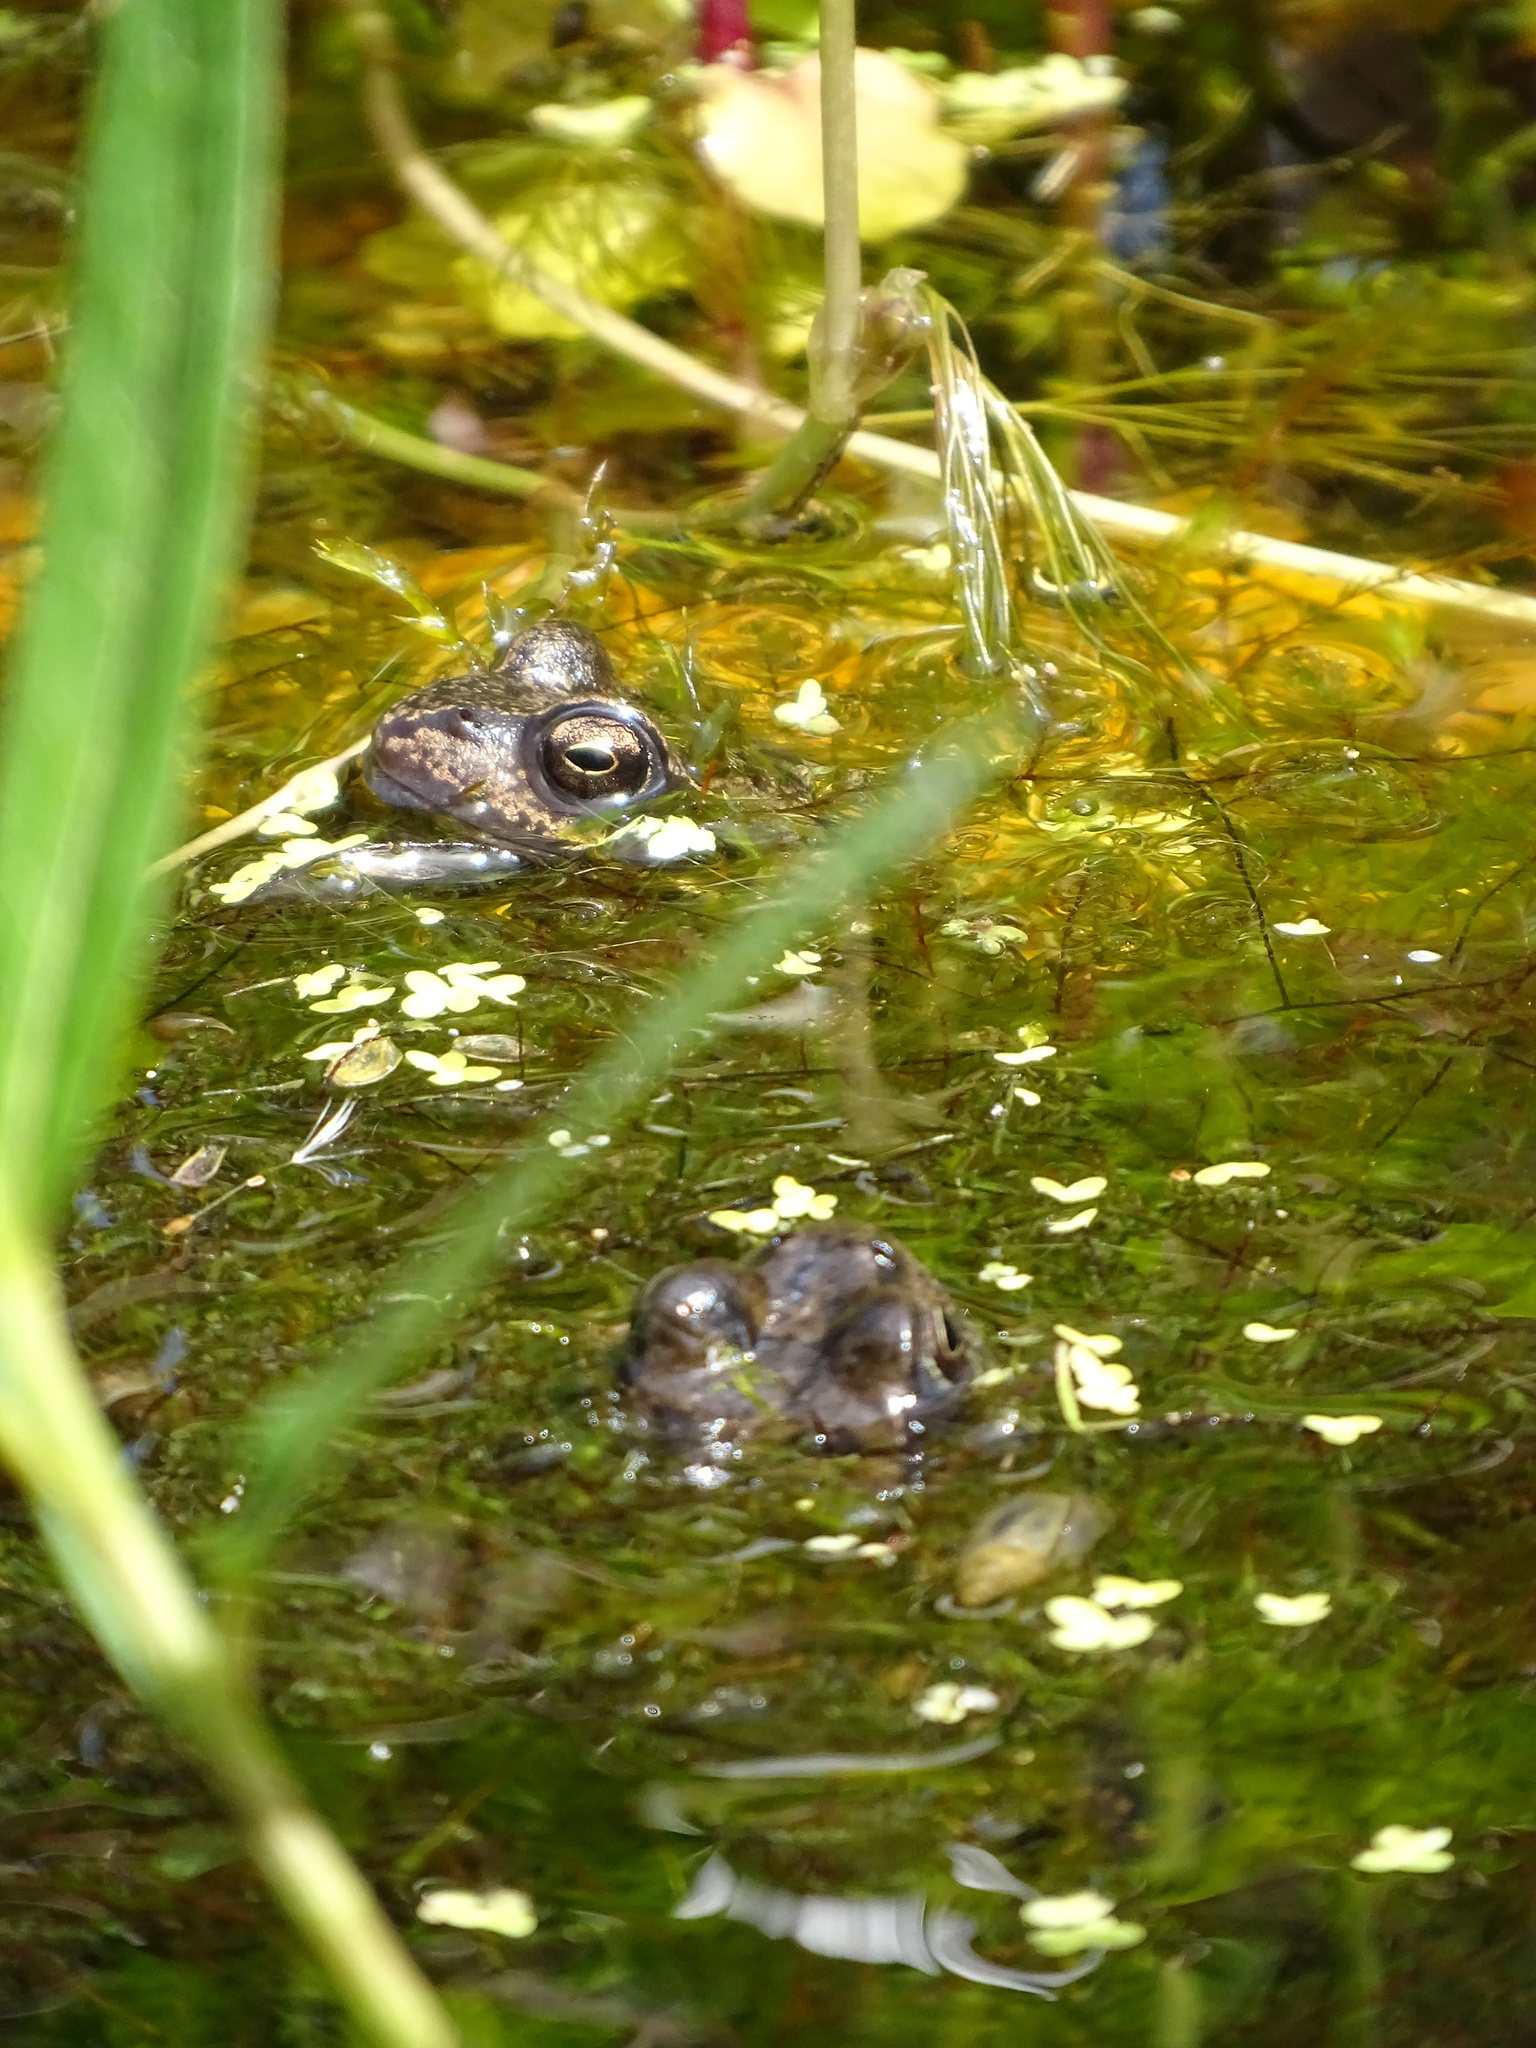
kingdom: Animalia
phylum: Chordata
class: Amphibia
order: Anura
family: Ranidae
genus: Rana
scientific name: Rana temporaria
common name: Common frog
